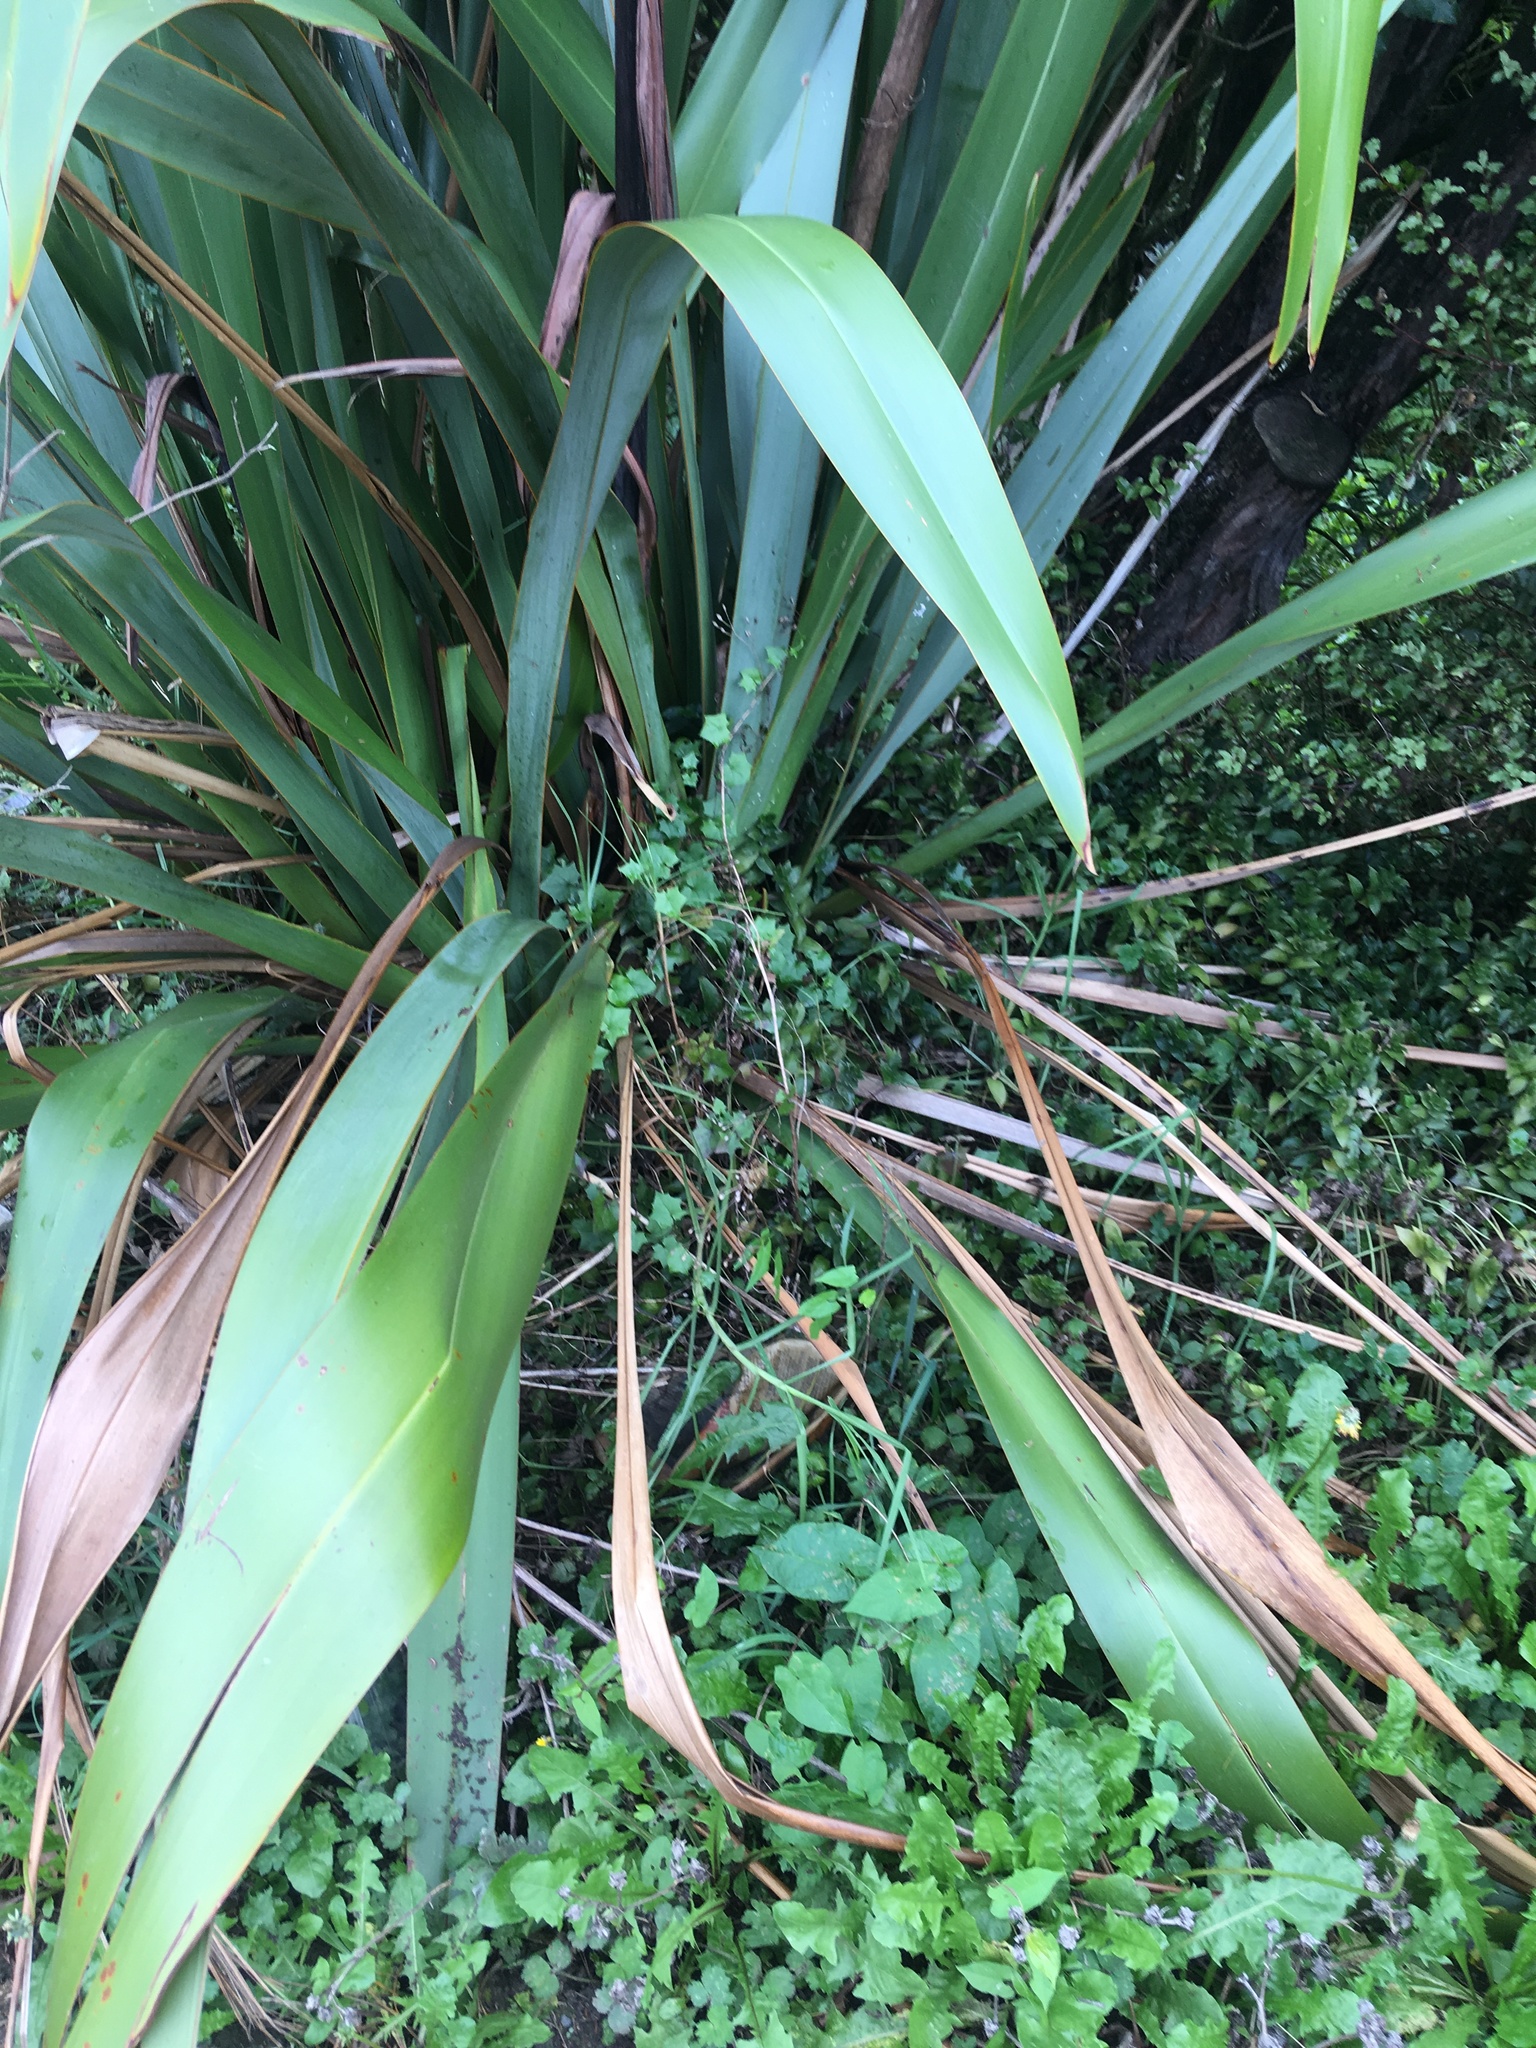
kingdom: Plantae
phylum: Tracheophyta
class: Magnoliopsida
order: Asterales
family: Asteraceae
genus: Delairea
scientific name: Delairea odorata
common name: Cape-ivy
